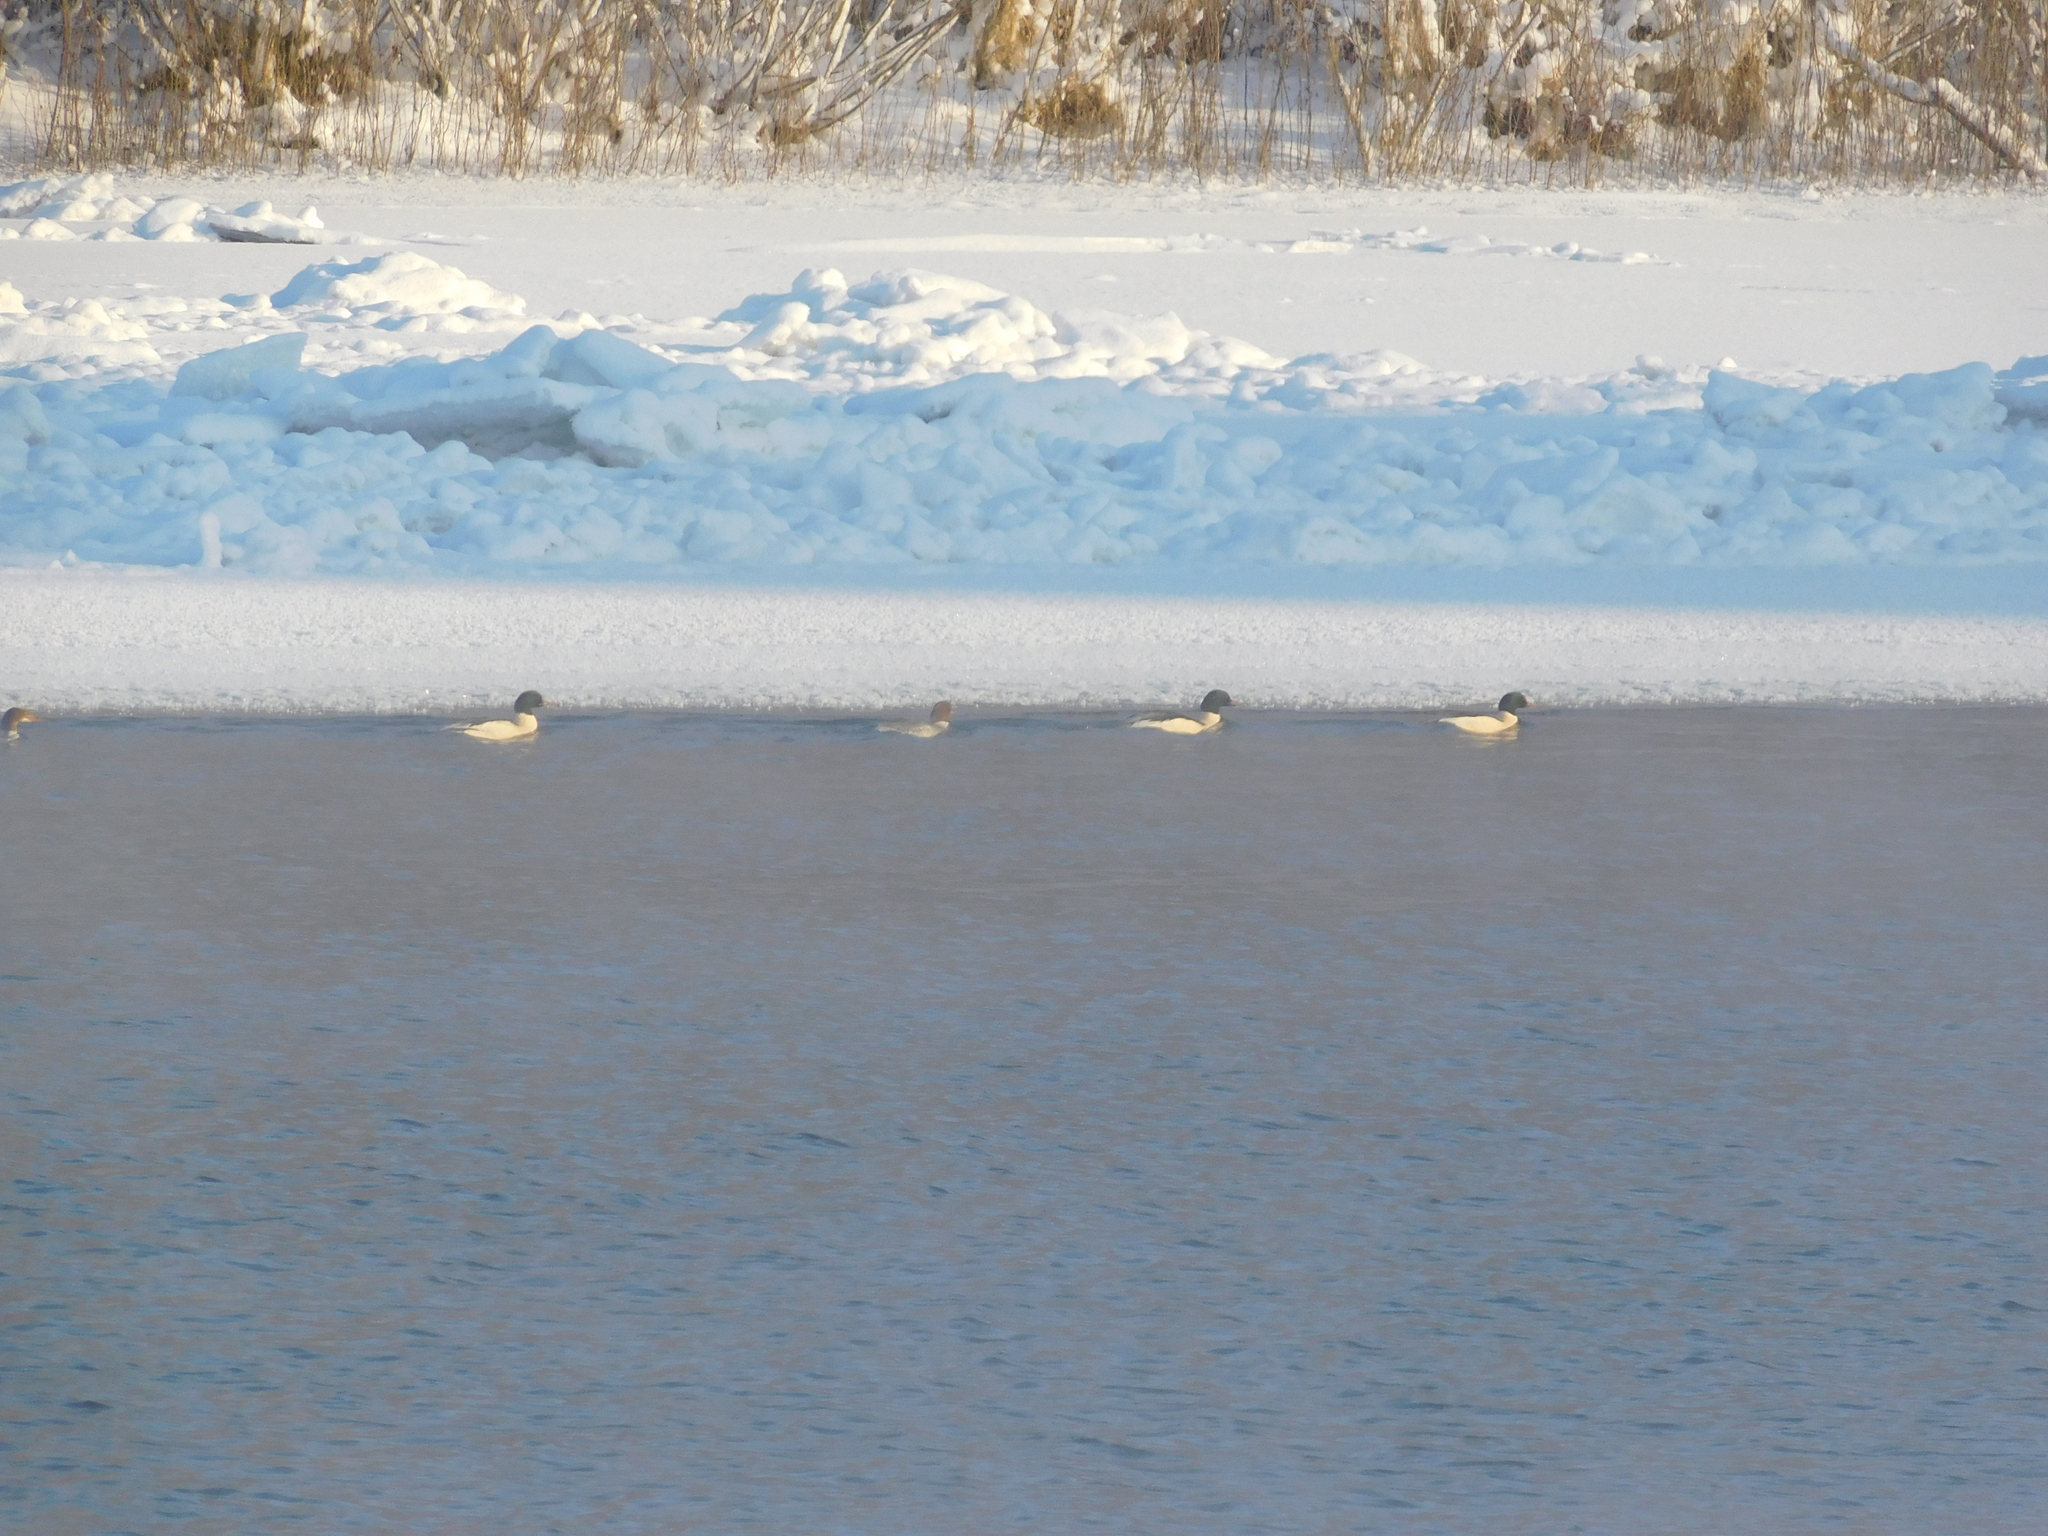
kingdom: Animalia
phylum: Chordata
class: Aves
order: Anseriformes
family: Anatidae
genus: Mergus
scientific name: Mergus merganser
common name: Common merganser
